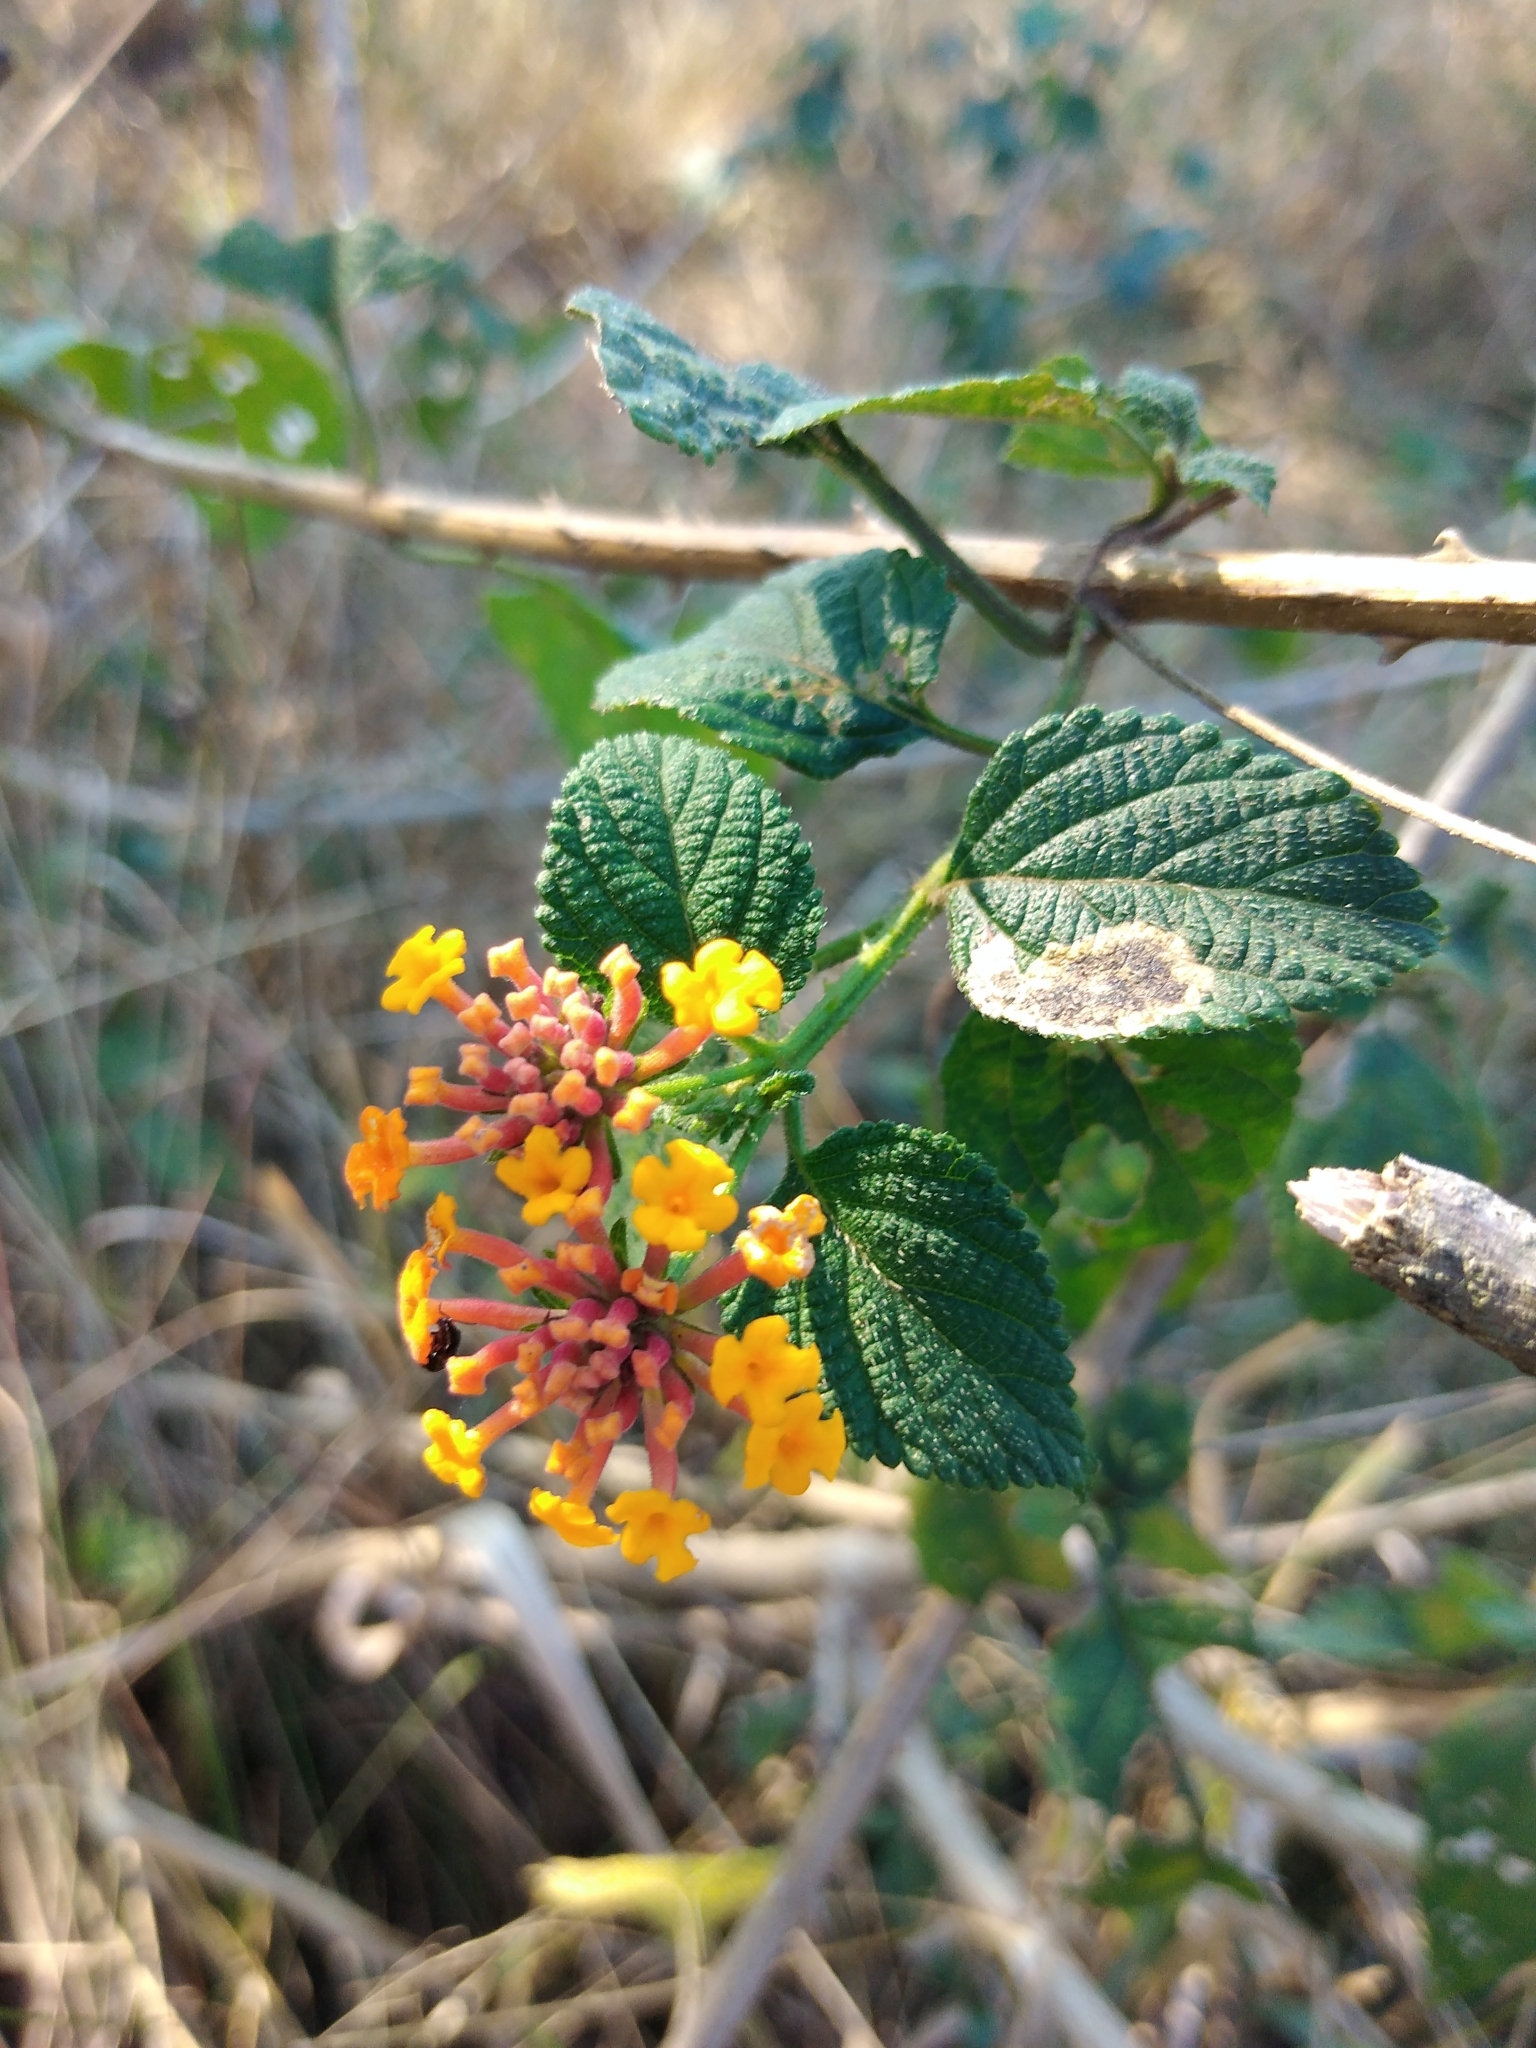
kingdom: Plantae
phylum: Tracheophyta
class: Magnoliopsida
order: Lamiales
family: Verbenaceae
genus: Lantana
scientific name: Lantana camara
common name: Lantana
